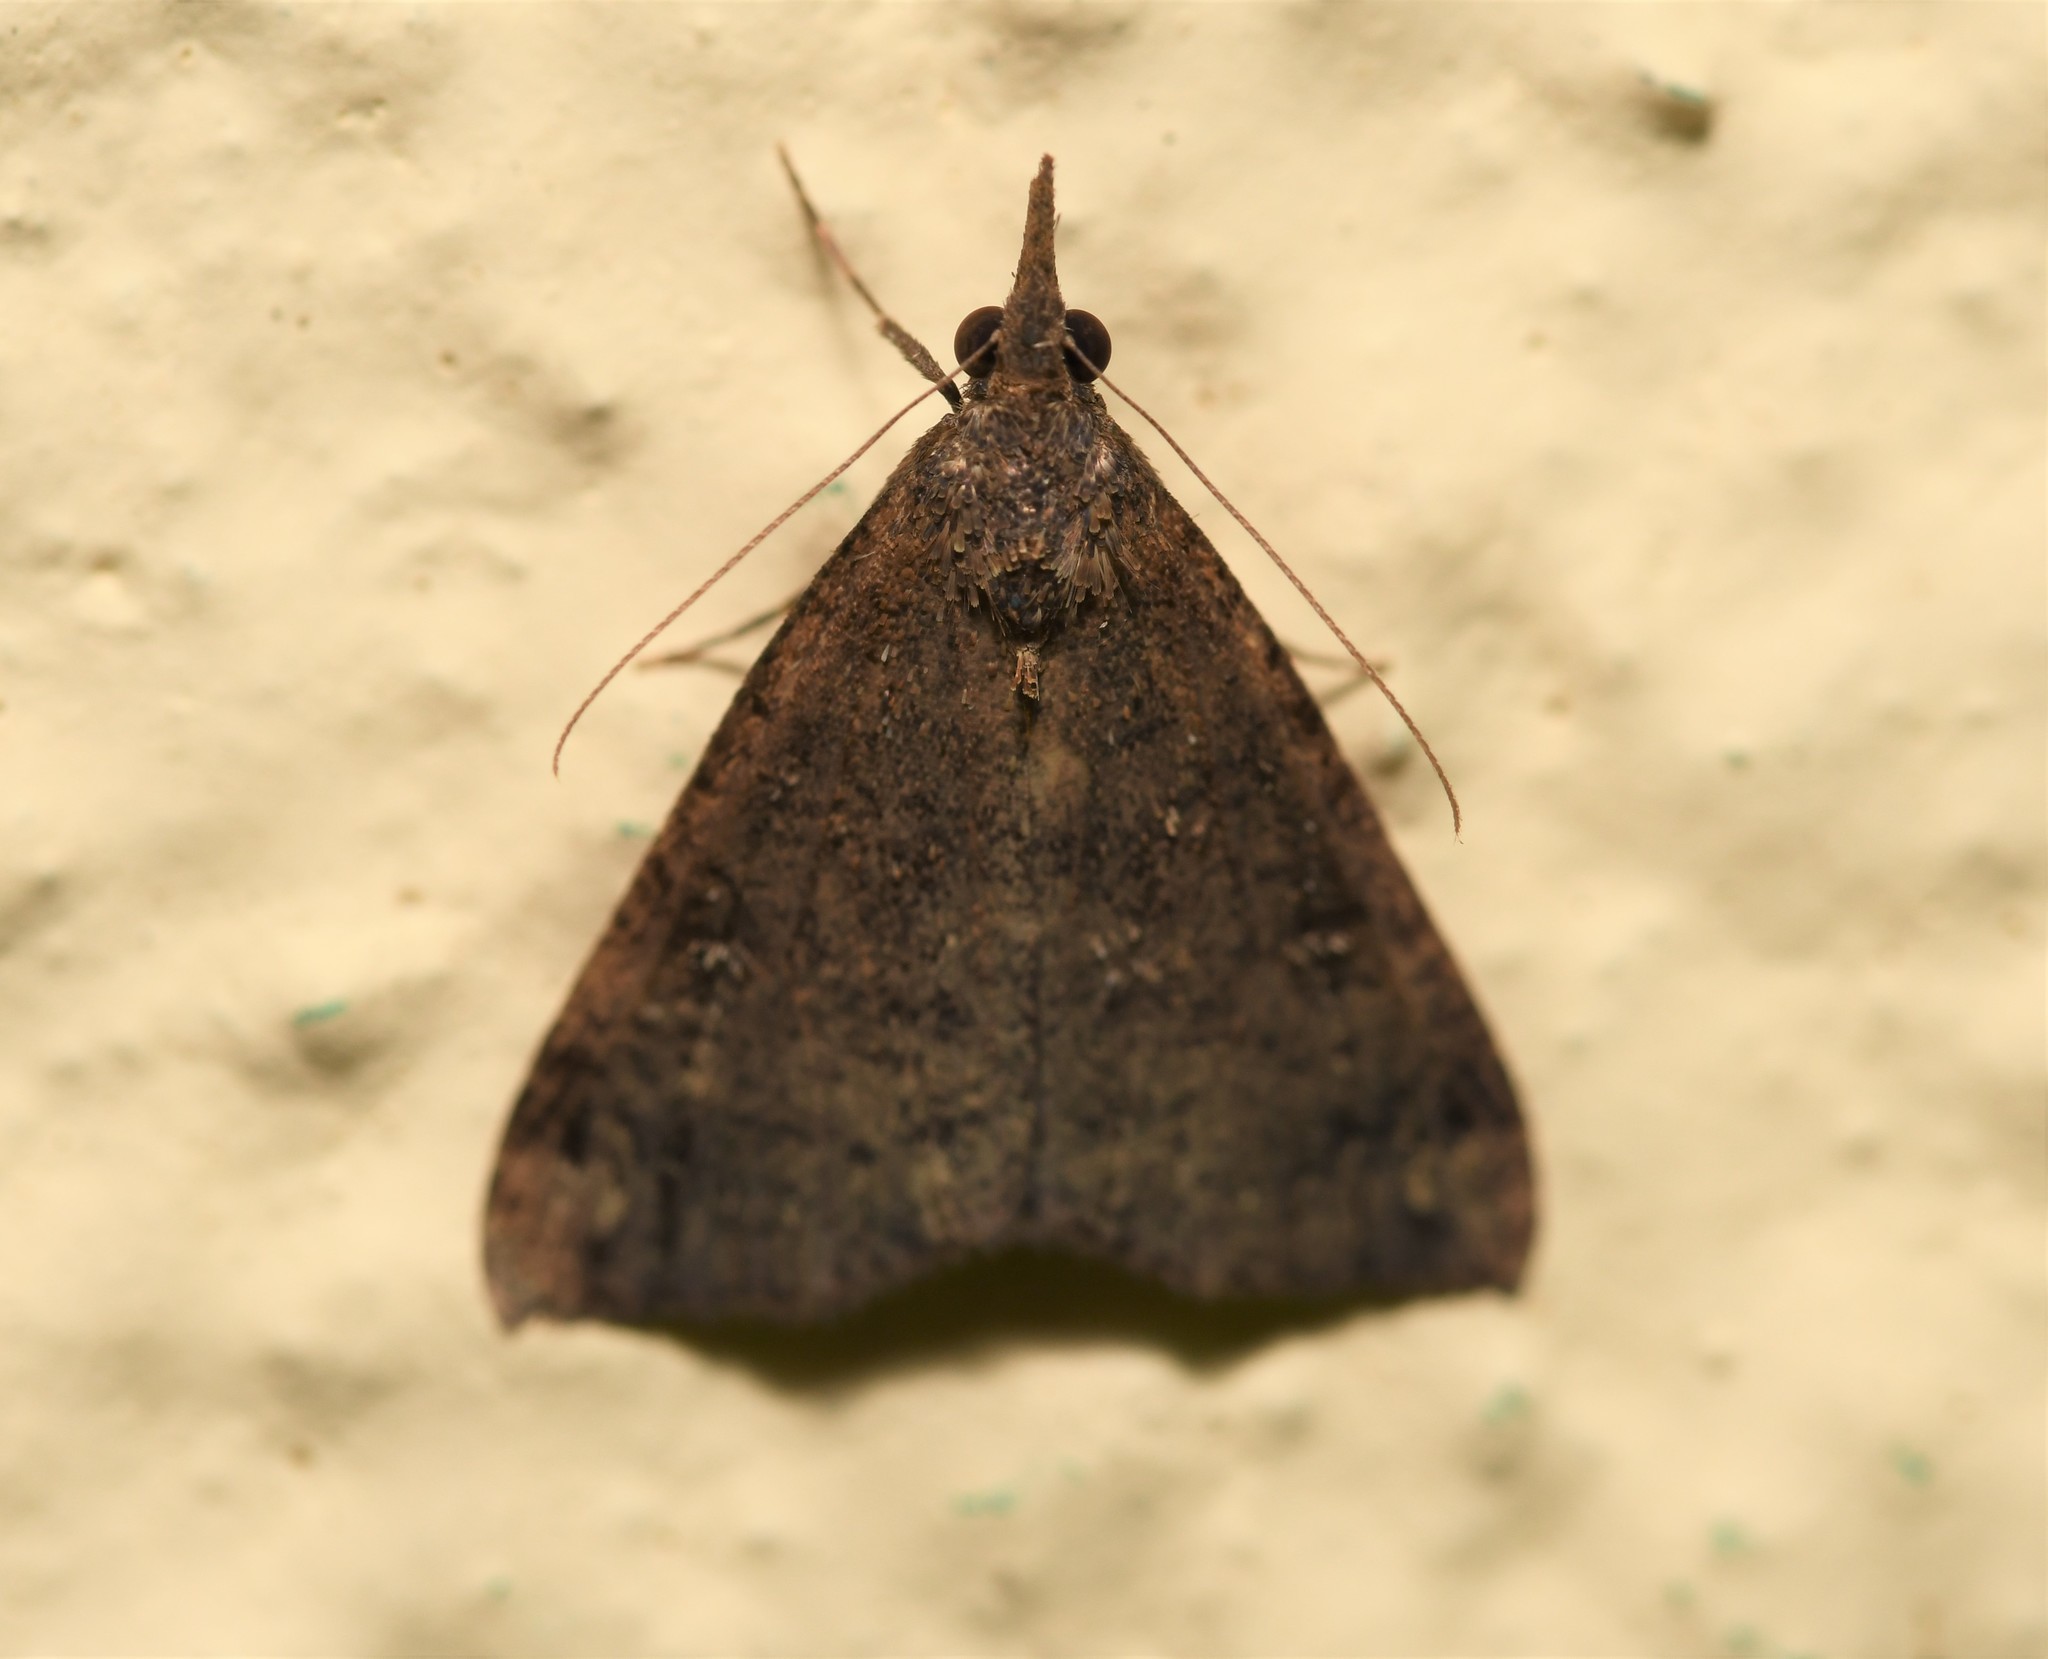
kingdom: Animalia
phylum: Arthropoda
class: Insecta
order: Lepidoptera
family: Erebidae
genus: Hypena
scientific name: Hypena obsitalis
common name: Bloxworth snout
